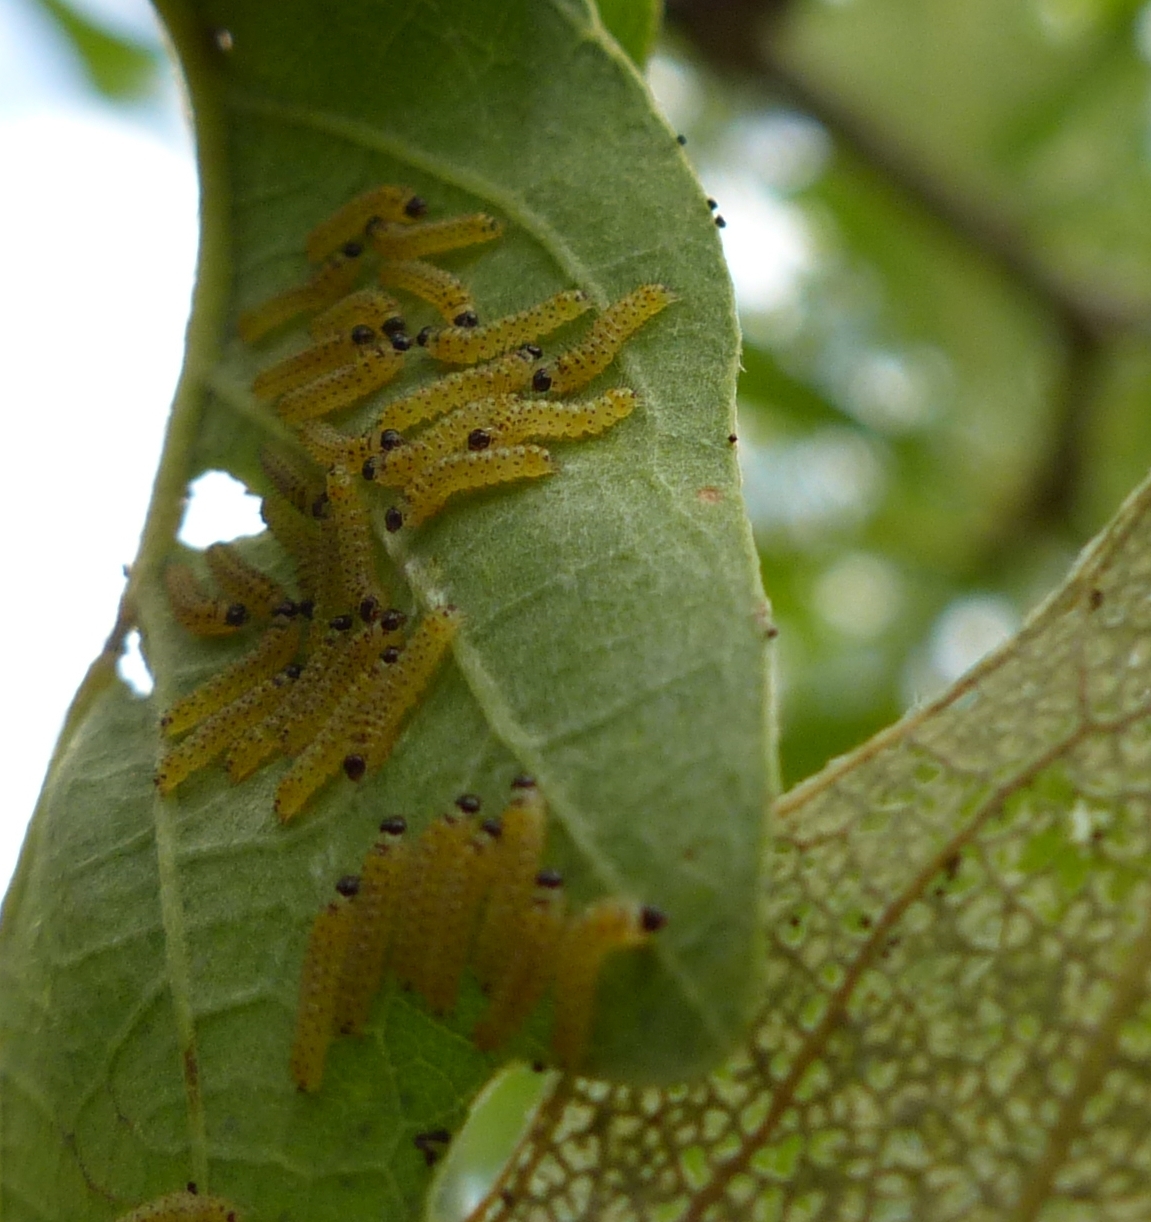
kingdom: Animalia
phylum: Arthropoda
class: Insecta
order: Lepidoptera
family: Erebidae
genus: Hyphantria
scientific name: Hyphantria cunea
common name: American white moth
